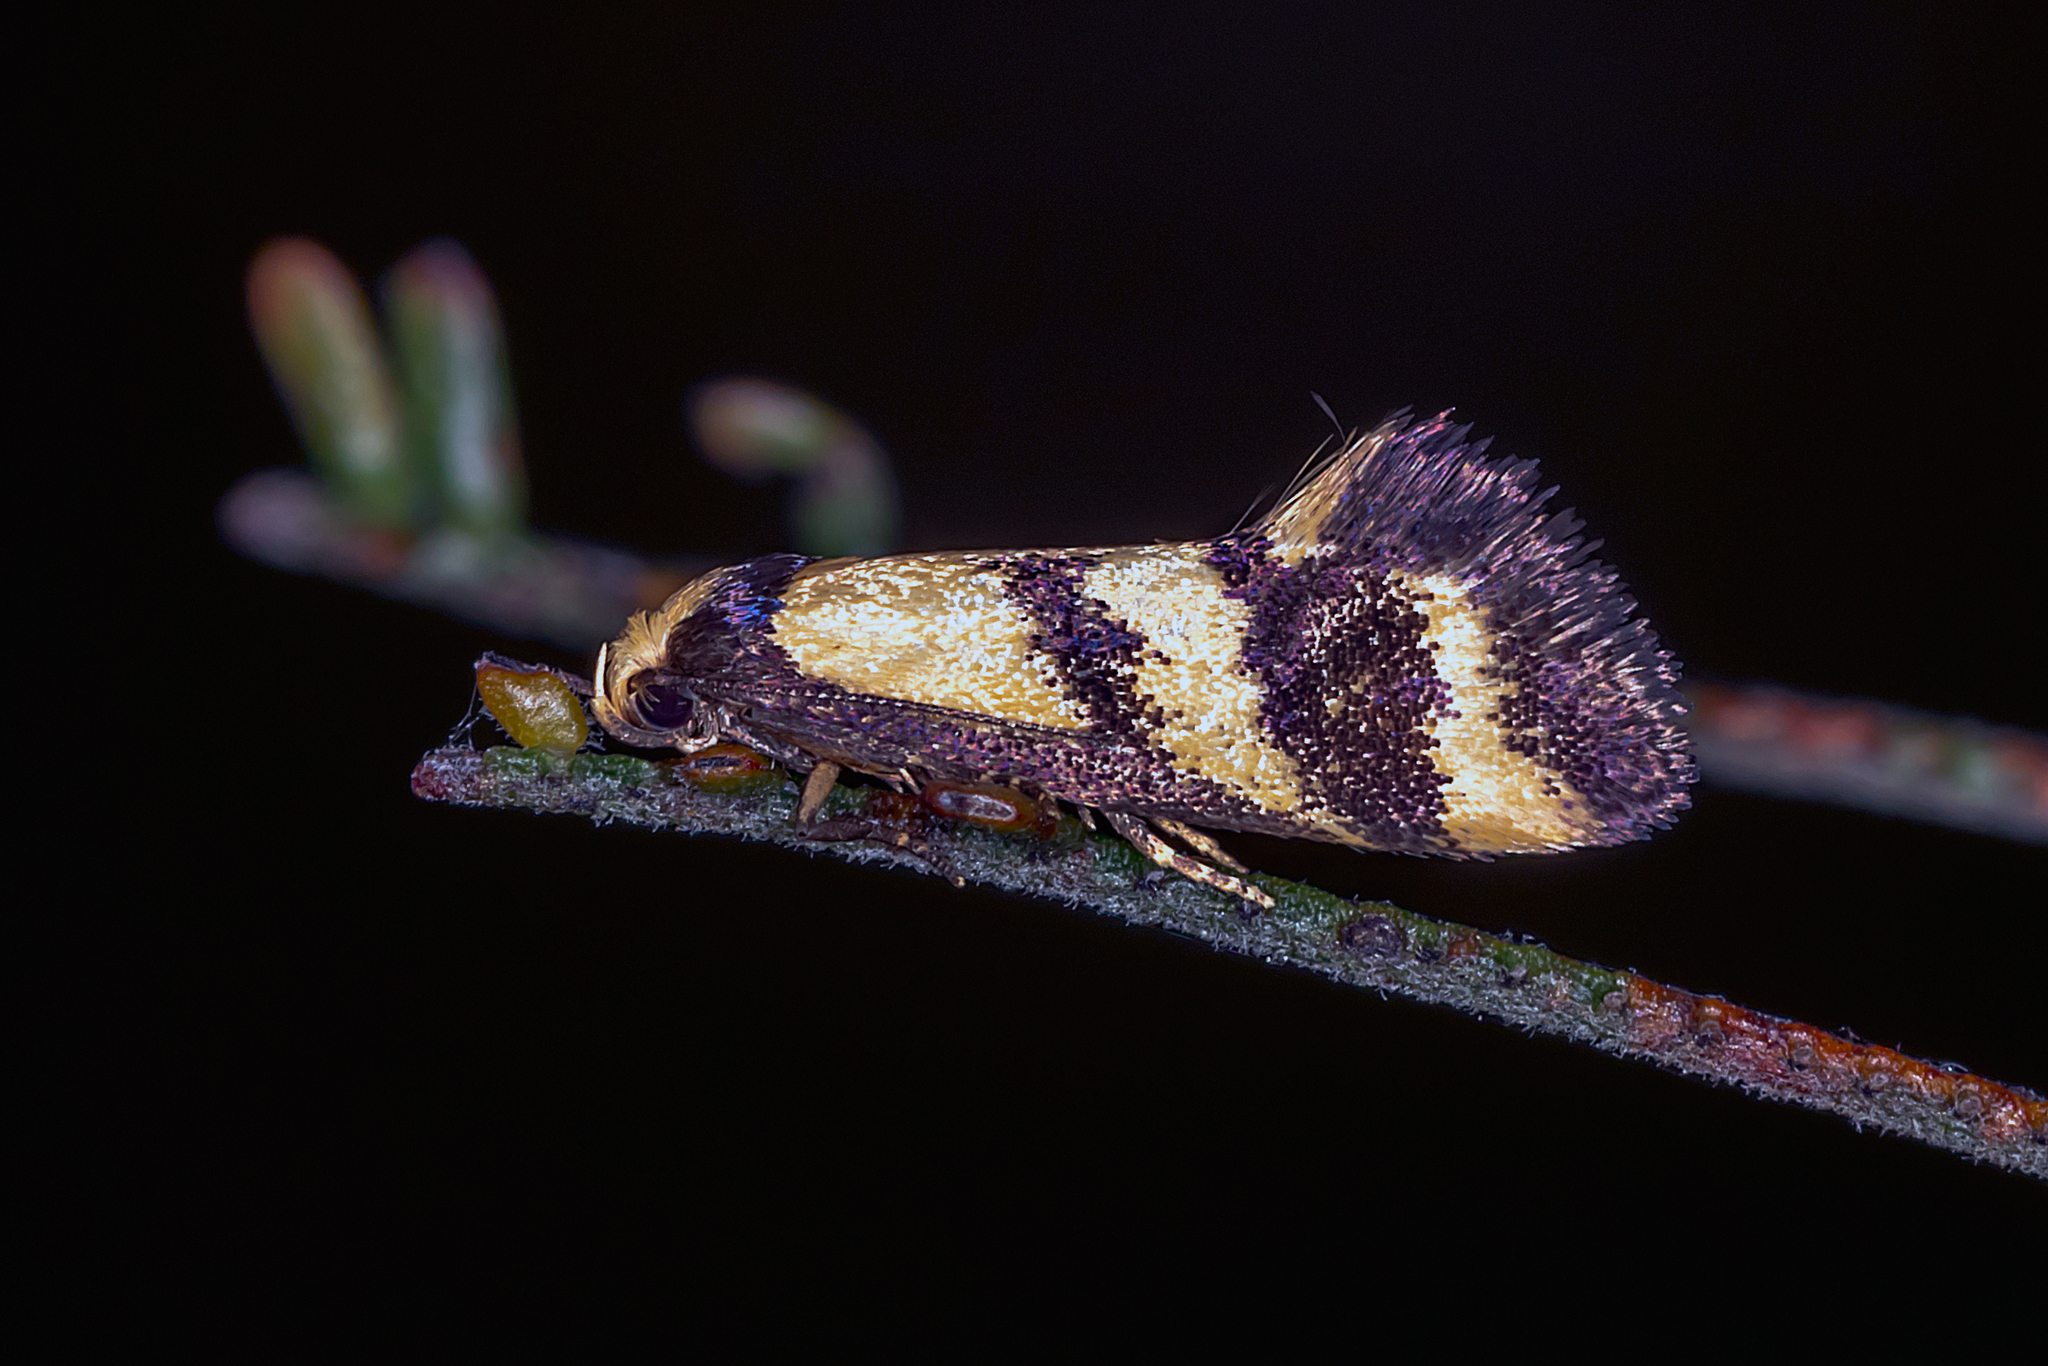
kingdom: Animalia
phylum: Arthropoda
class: Insecta
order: Lepidoptera
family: Oecophoridae
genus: Olbonoma
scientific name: Olbonoma triptycha
